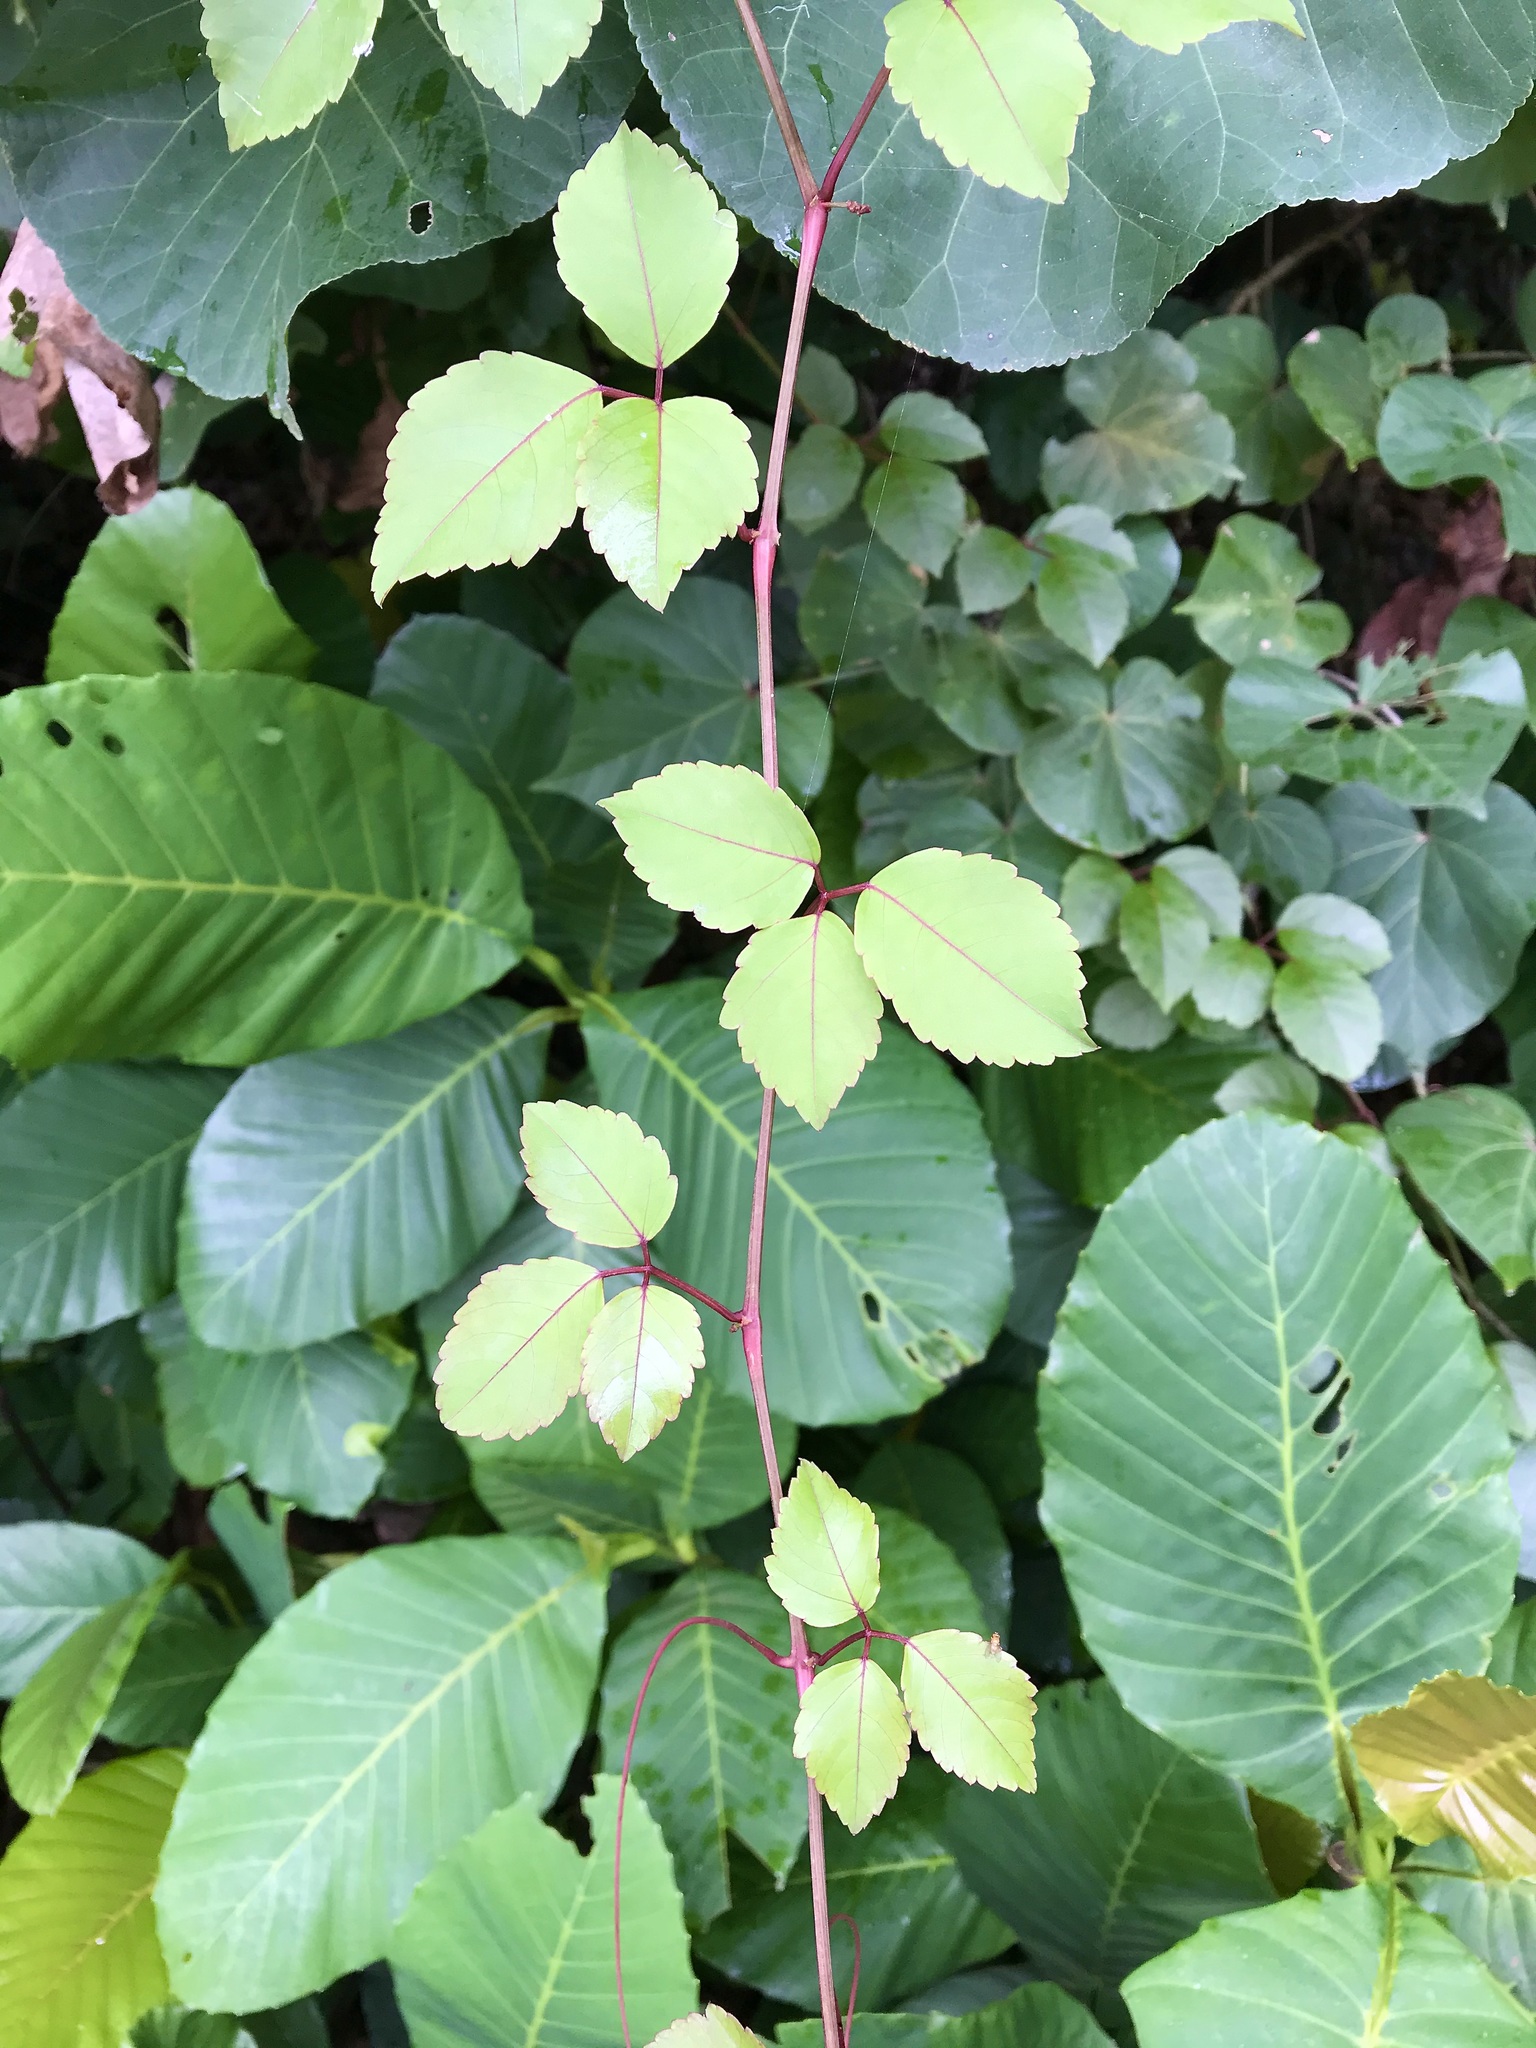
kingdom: Plantae
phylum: Tracheophyta
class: Magnoliopsida
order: Vitales
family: Vitaceae
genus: Causonis
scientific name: Causonis trifolia
